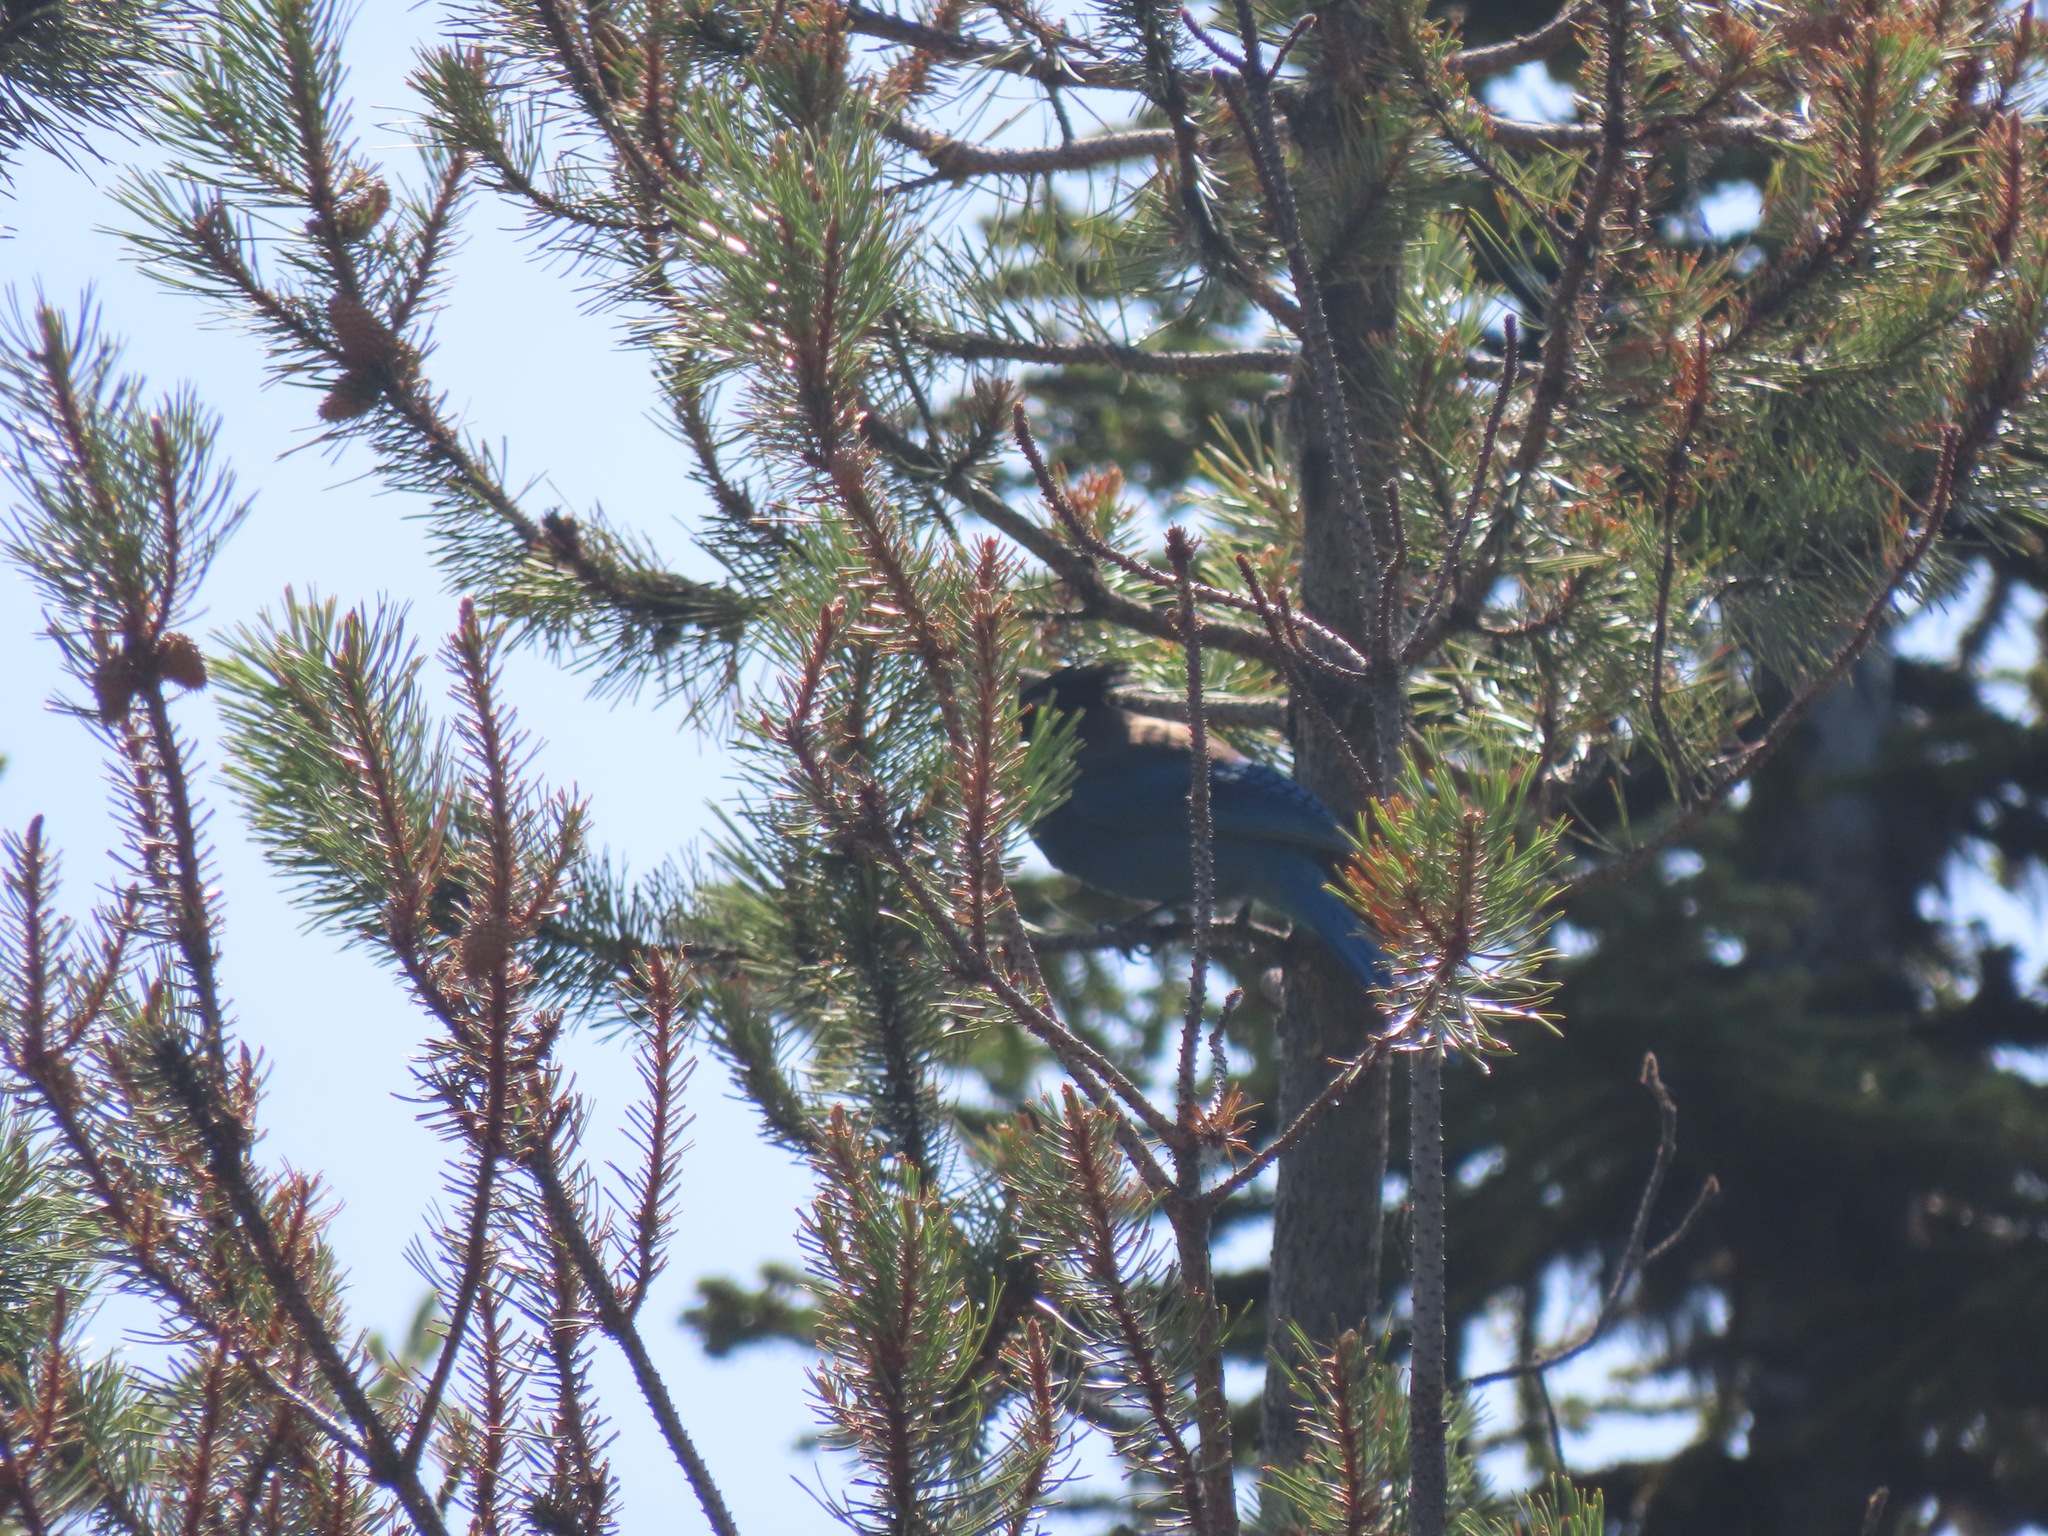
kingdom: Animalia
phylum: Chordata
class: Aves
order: Passeriformes
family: Corvidae
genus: Cyanocitta
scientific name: Cyanocitta stelleri
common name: Steller's jay
